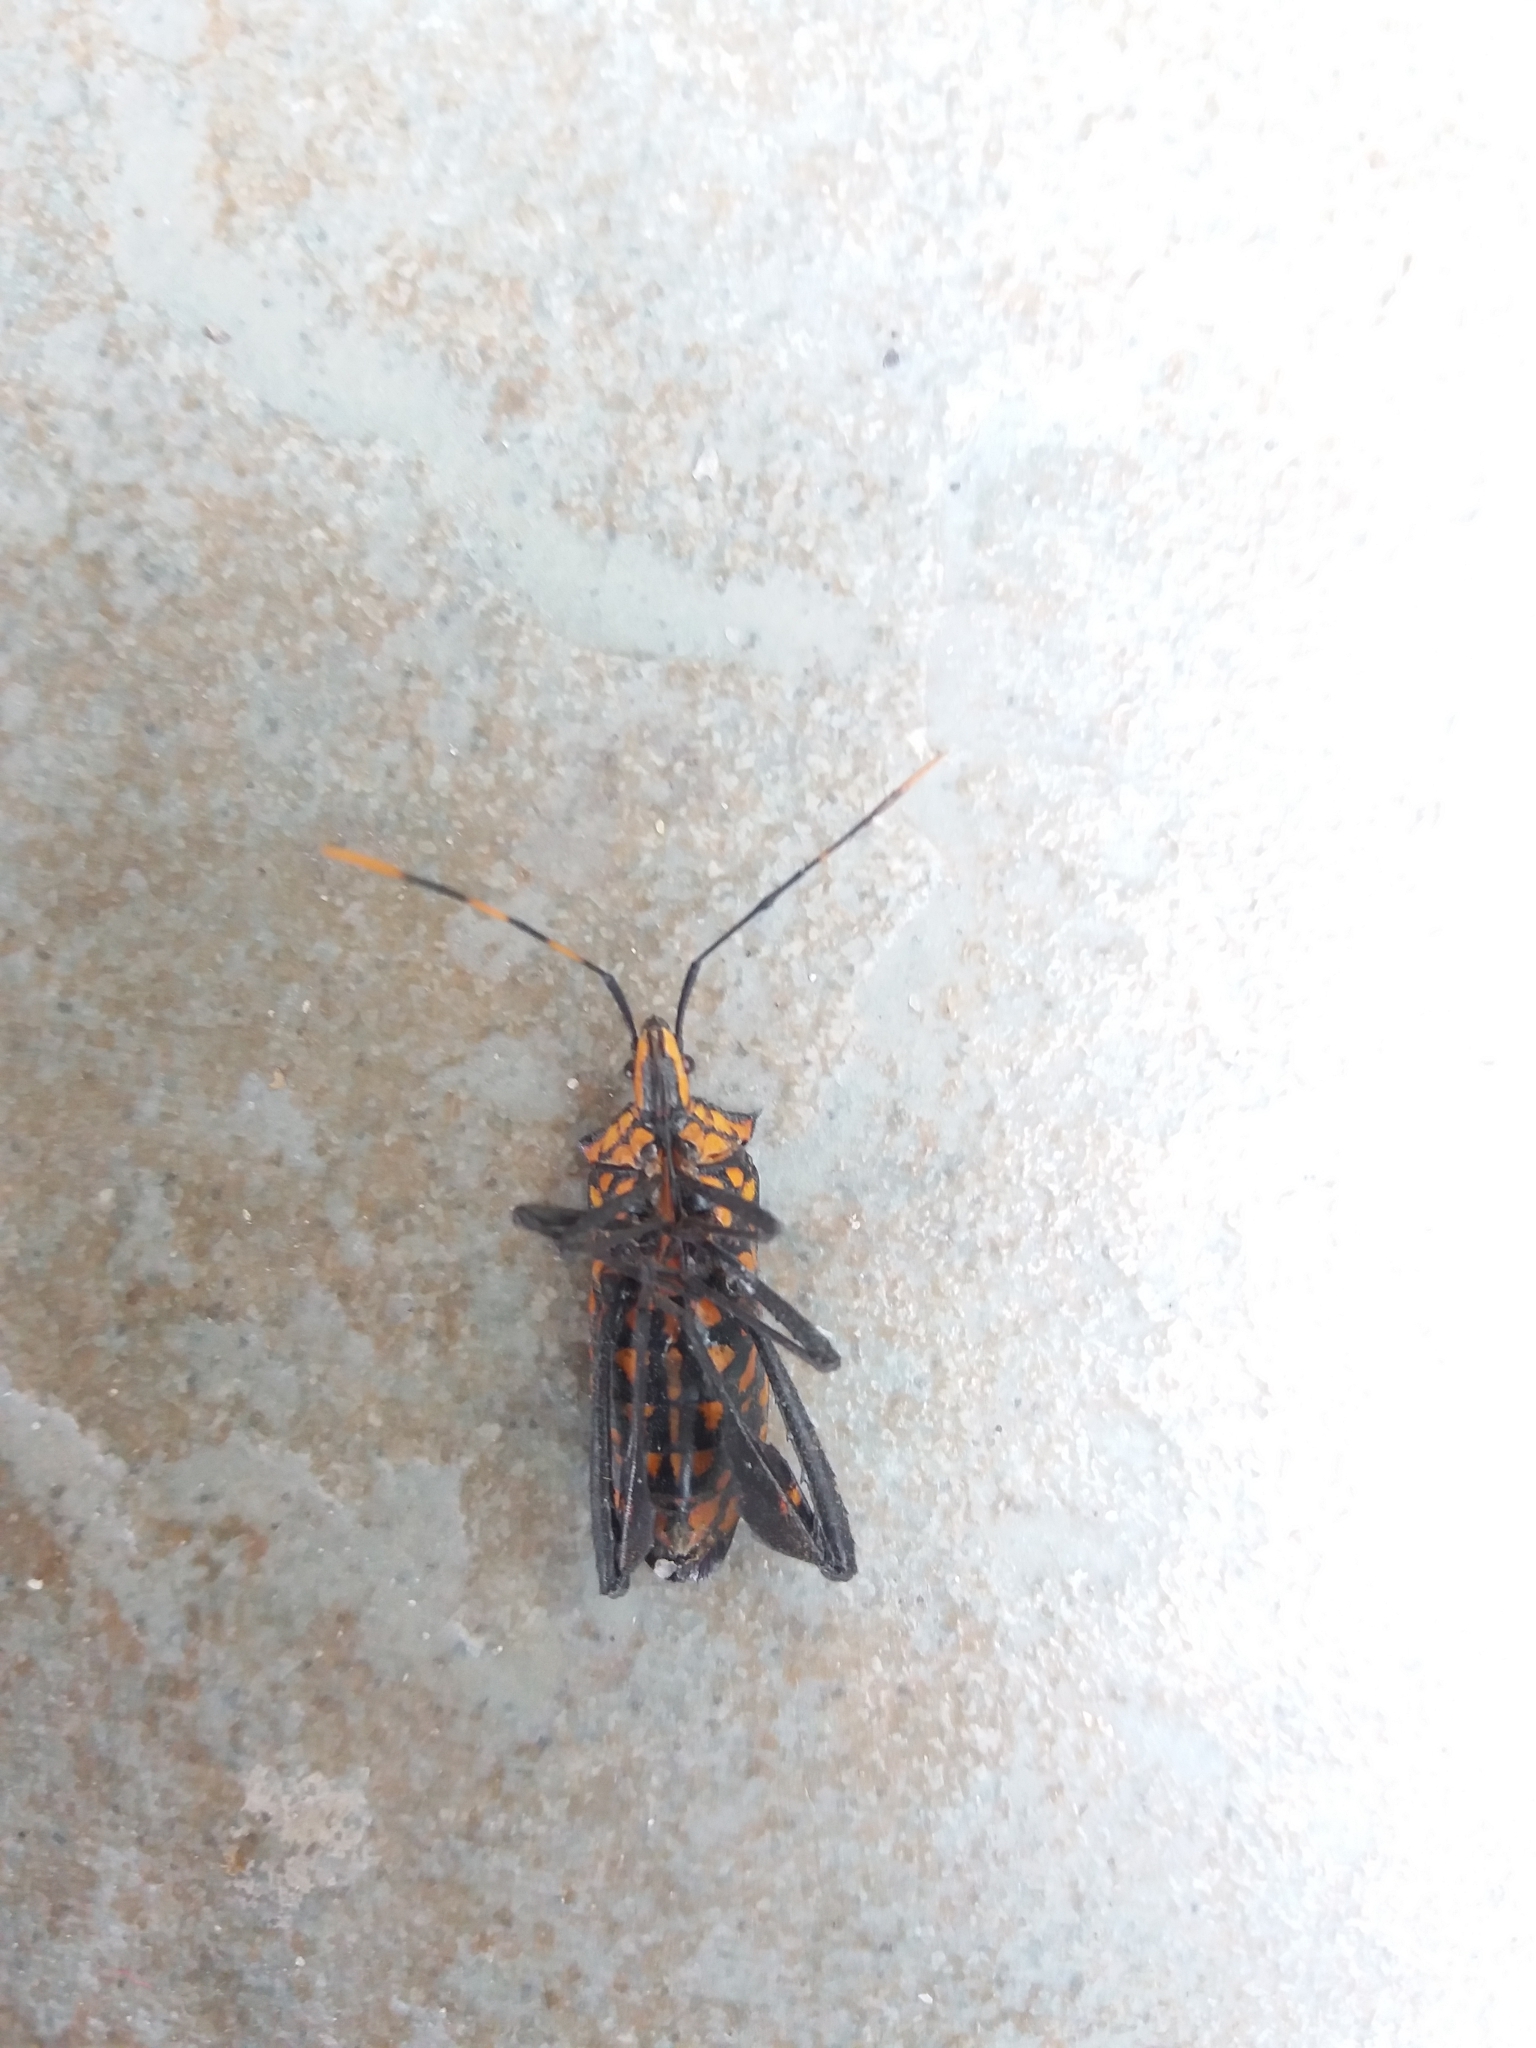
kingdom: Animalia
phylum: Arthropoda
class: Insecta
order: Hemiptera
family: Coreidae
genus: Leptoglossus
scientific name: Leptoglossus gonagra
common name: Citron bug
